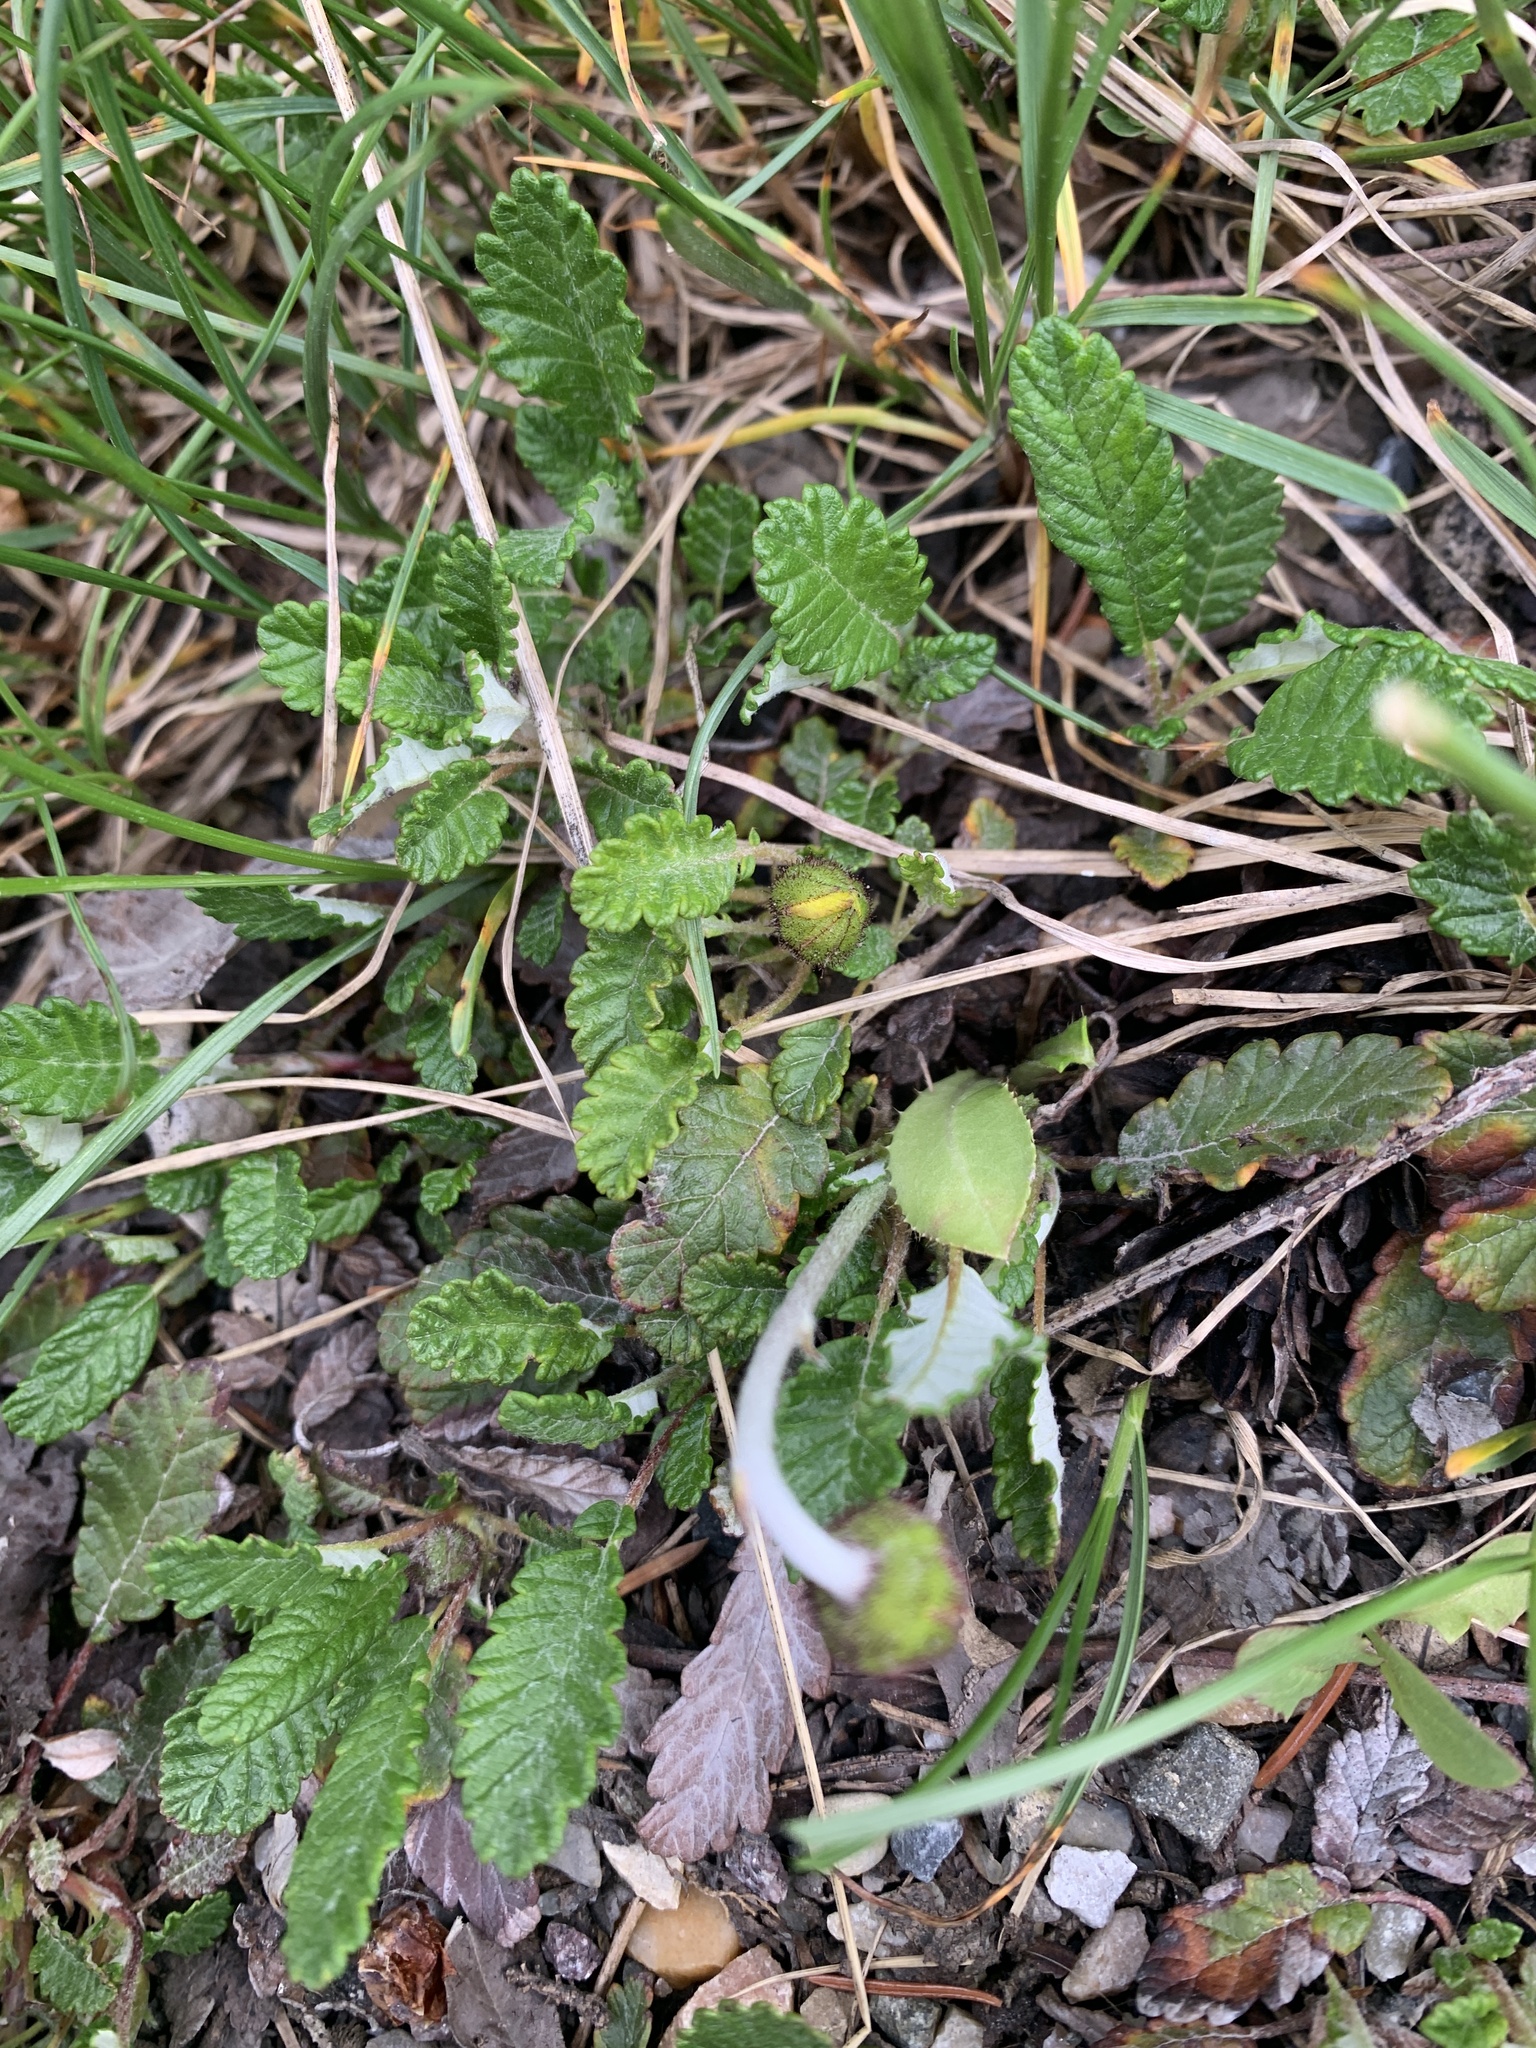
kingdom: Plantae
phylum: Tracheophyta
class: Magnoliopsida
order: Rosales
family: Rosaceae
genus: Dryas
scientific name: Dryas drummondii
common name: Drummond's dryad
